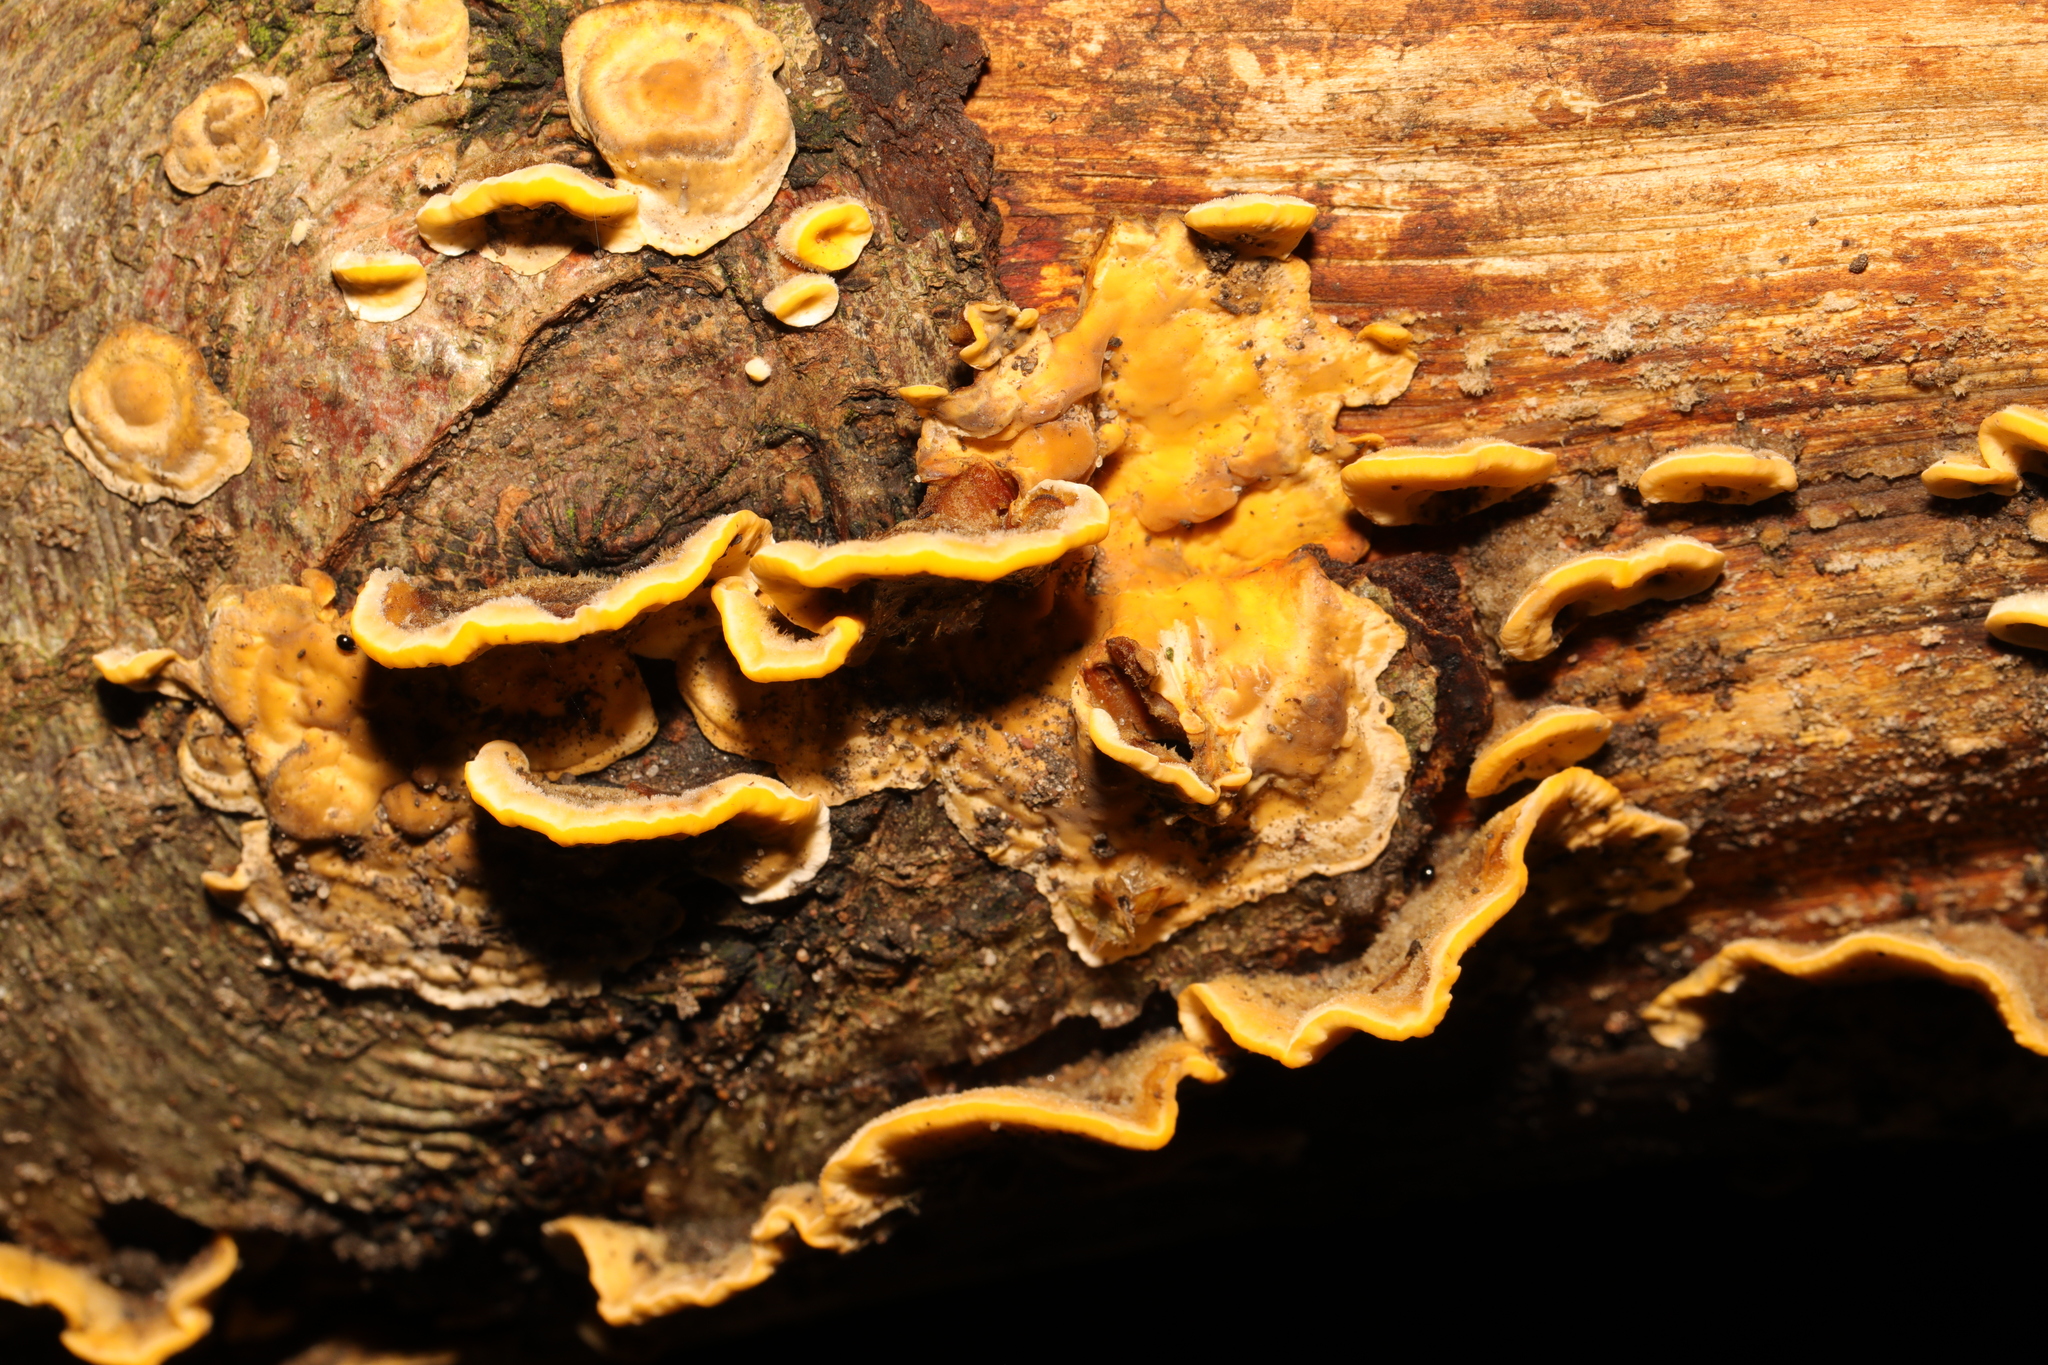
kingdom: Fungi
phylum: Basidiomycota
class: Agaricomycetes
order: Russulales
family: Stereaceae
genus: Stereum
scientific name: Stereum hirsutum
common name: Hairy curtain crust
